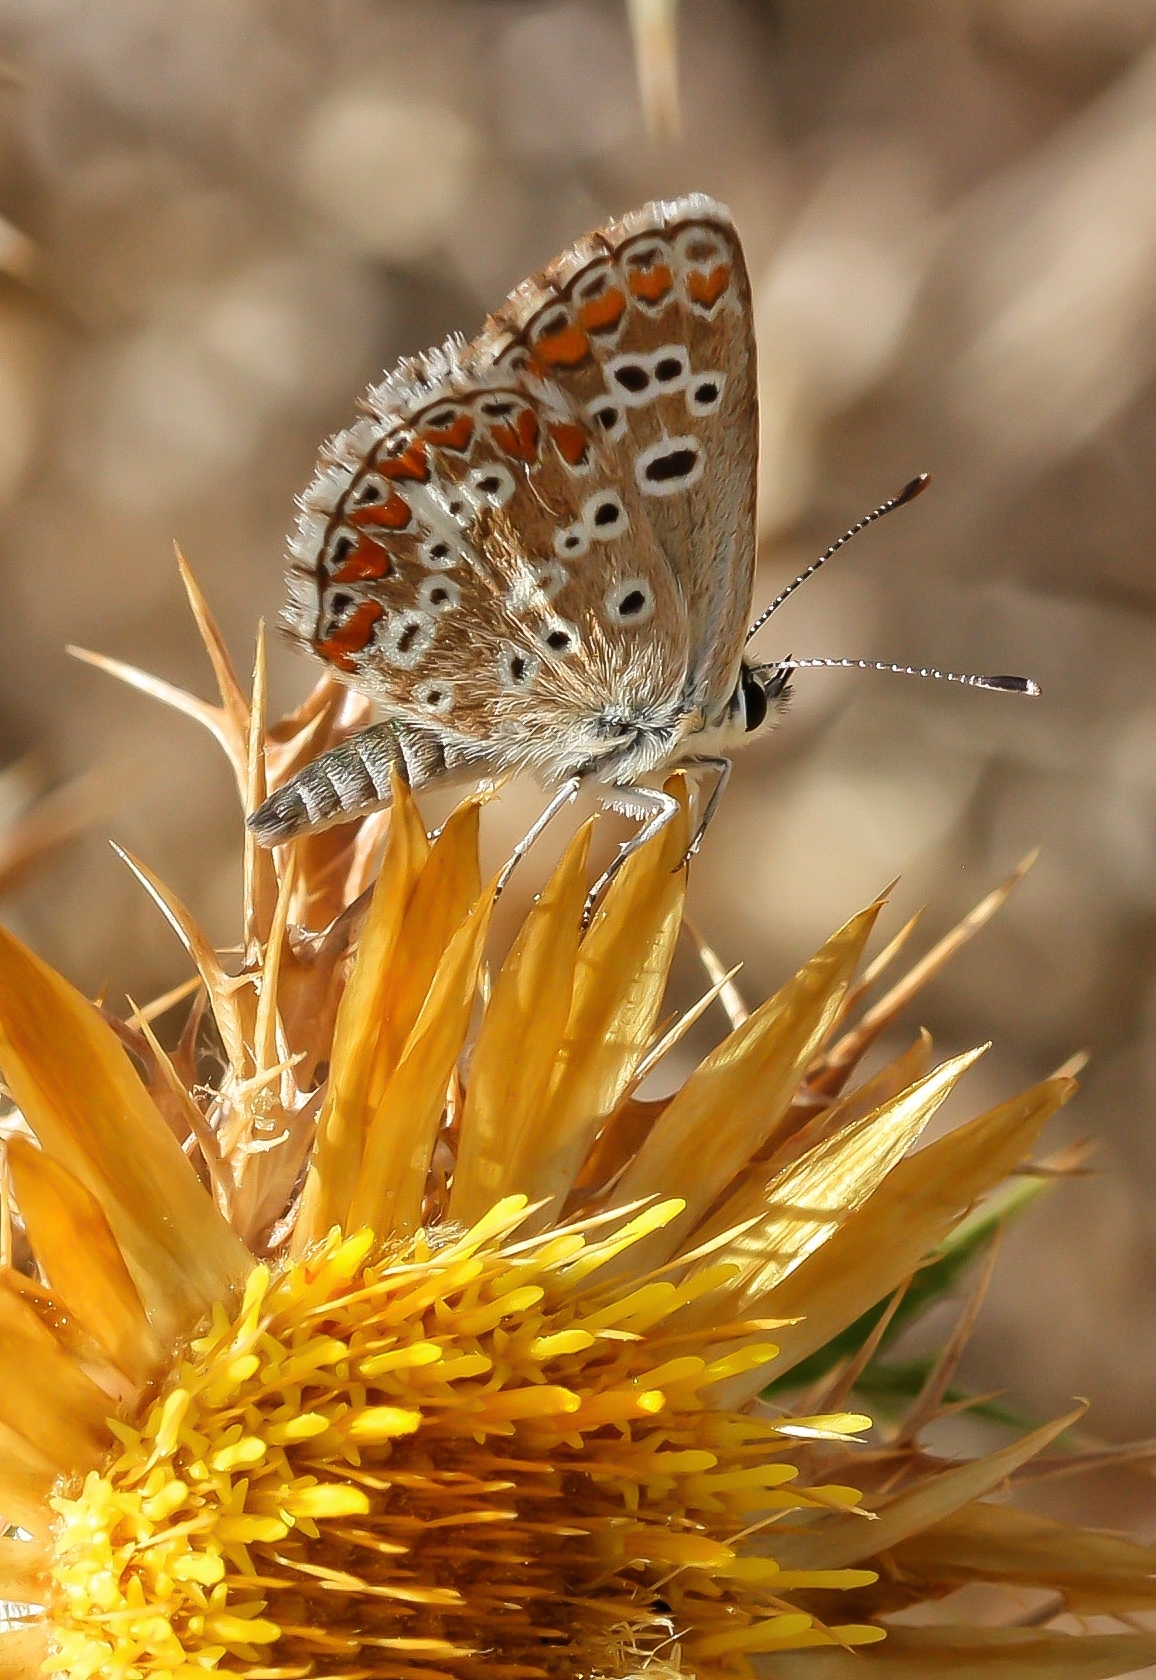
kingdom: Animalia
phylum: Arthropoda
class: Insecta
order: Lepidoptera
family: Lycaenidae
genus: Aricia
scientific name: Aricia cramera
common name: Eschscholtz´s brown  argus
